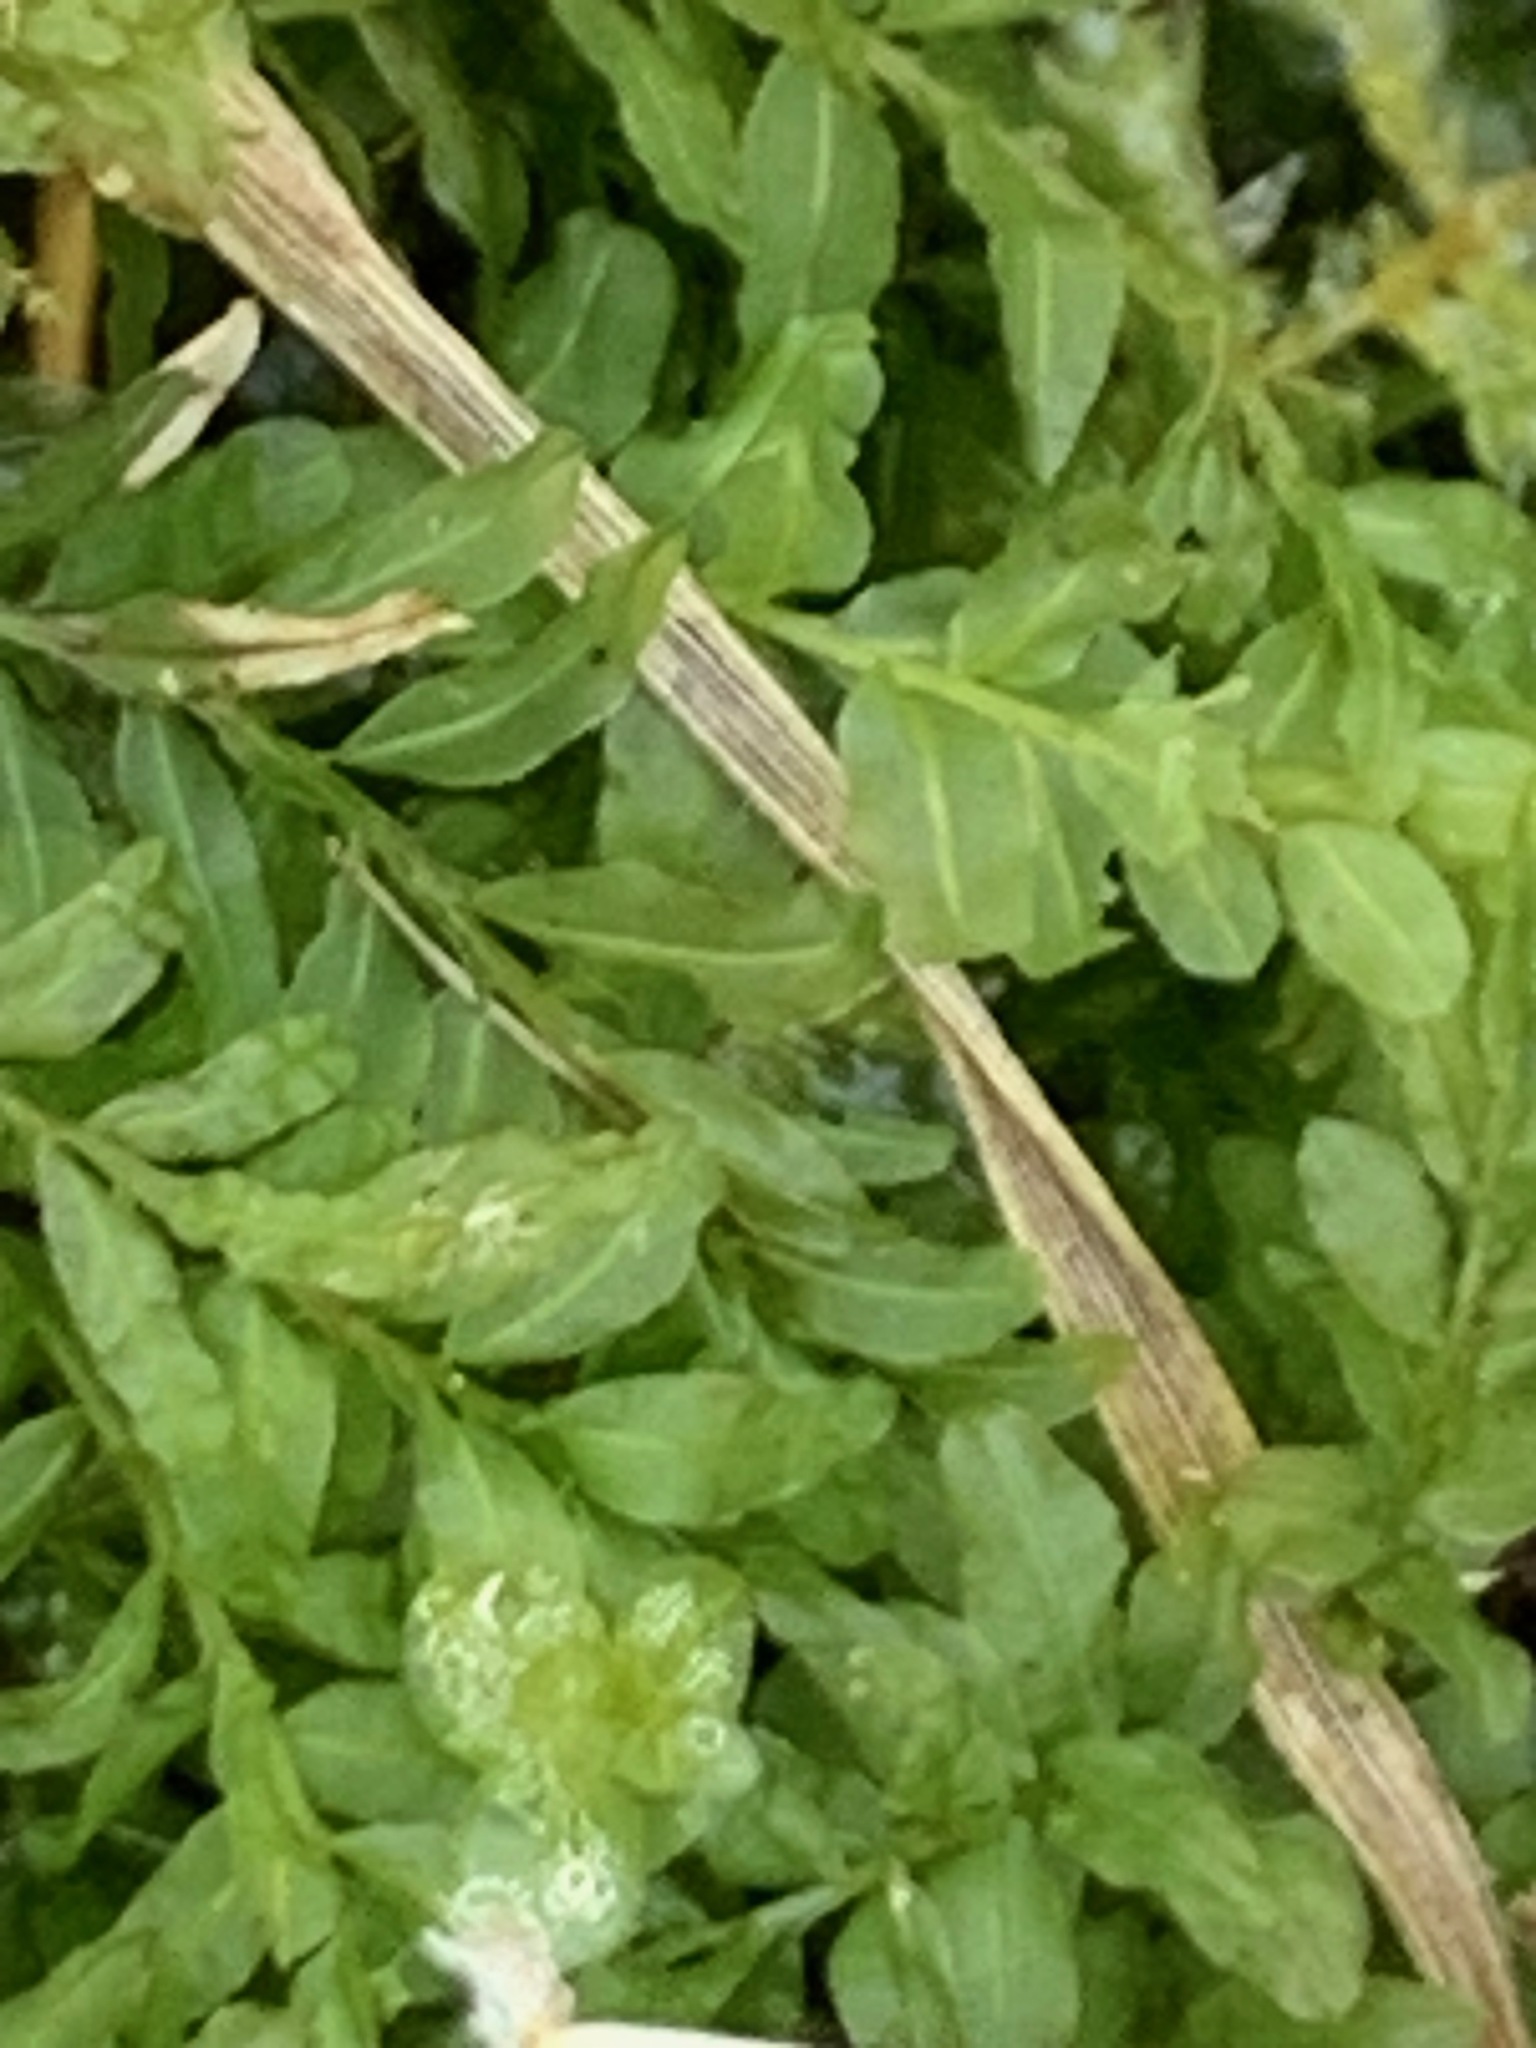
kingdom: Plantae
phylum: Bryophyta
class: Bryopsida
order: Bryales
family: Mniaceae
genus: Plagiomnium
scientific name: Plagiomnium undulatum
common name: Hart's-tongue thyme-moss
